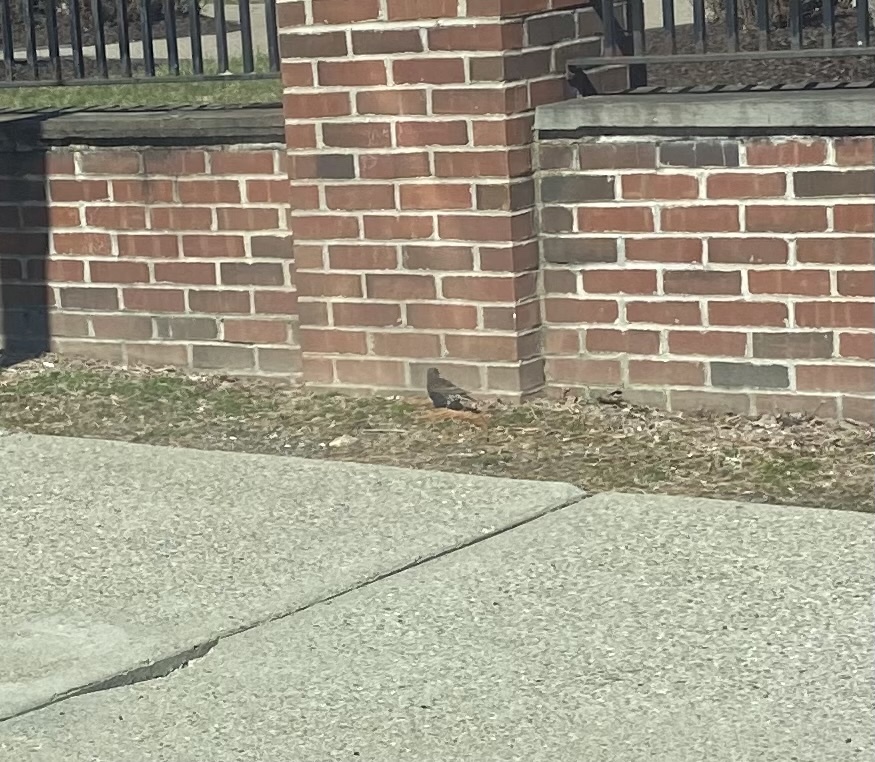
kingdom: Animalia
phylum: Chordata
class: Aves
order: Passeriformes
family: Sturnidae
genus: Sturnus
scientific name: Sturnus vulgaris
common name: Common starling
